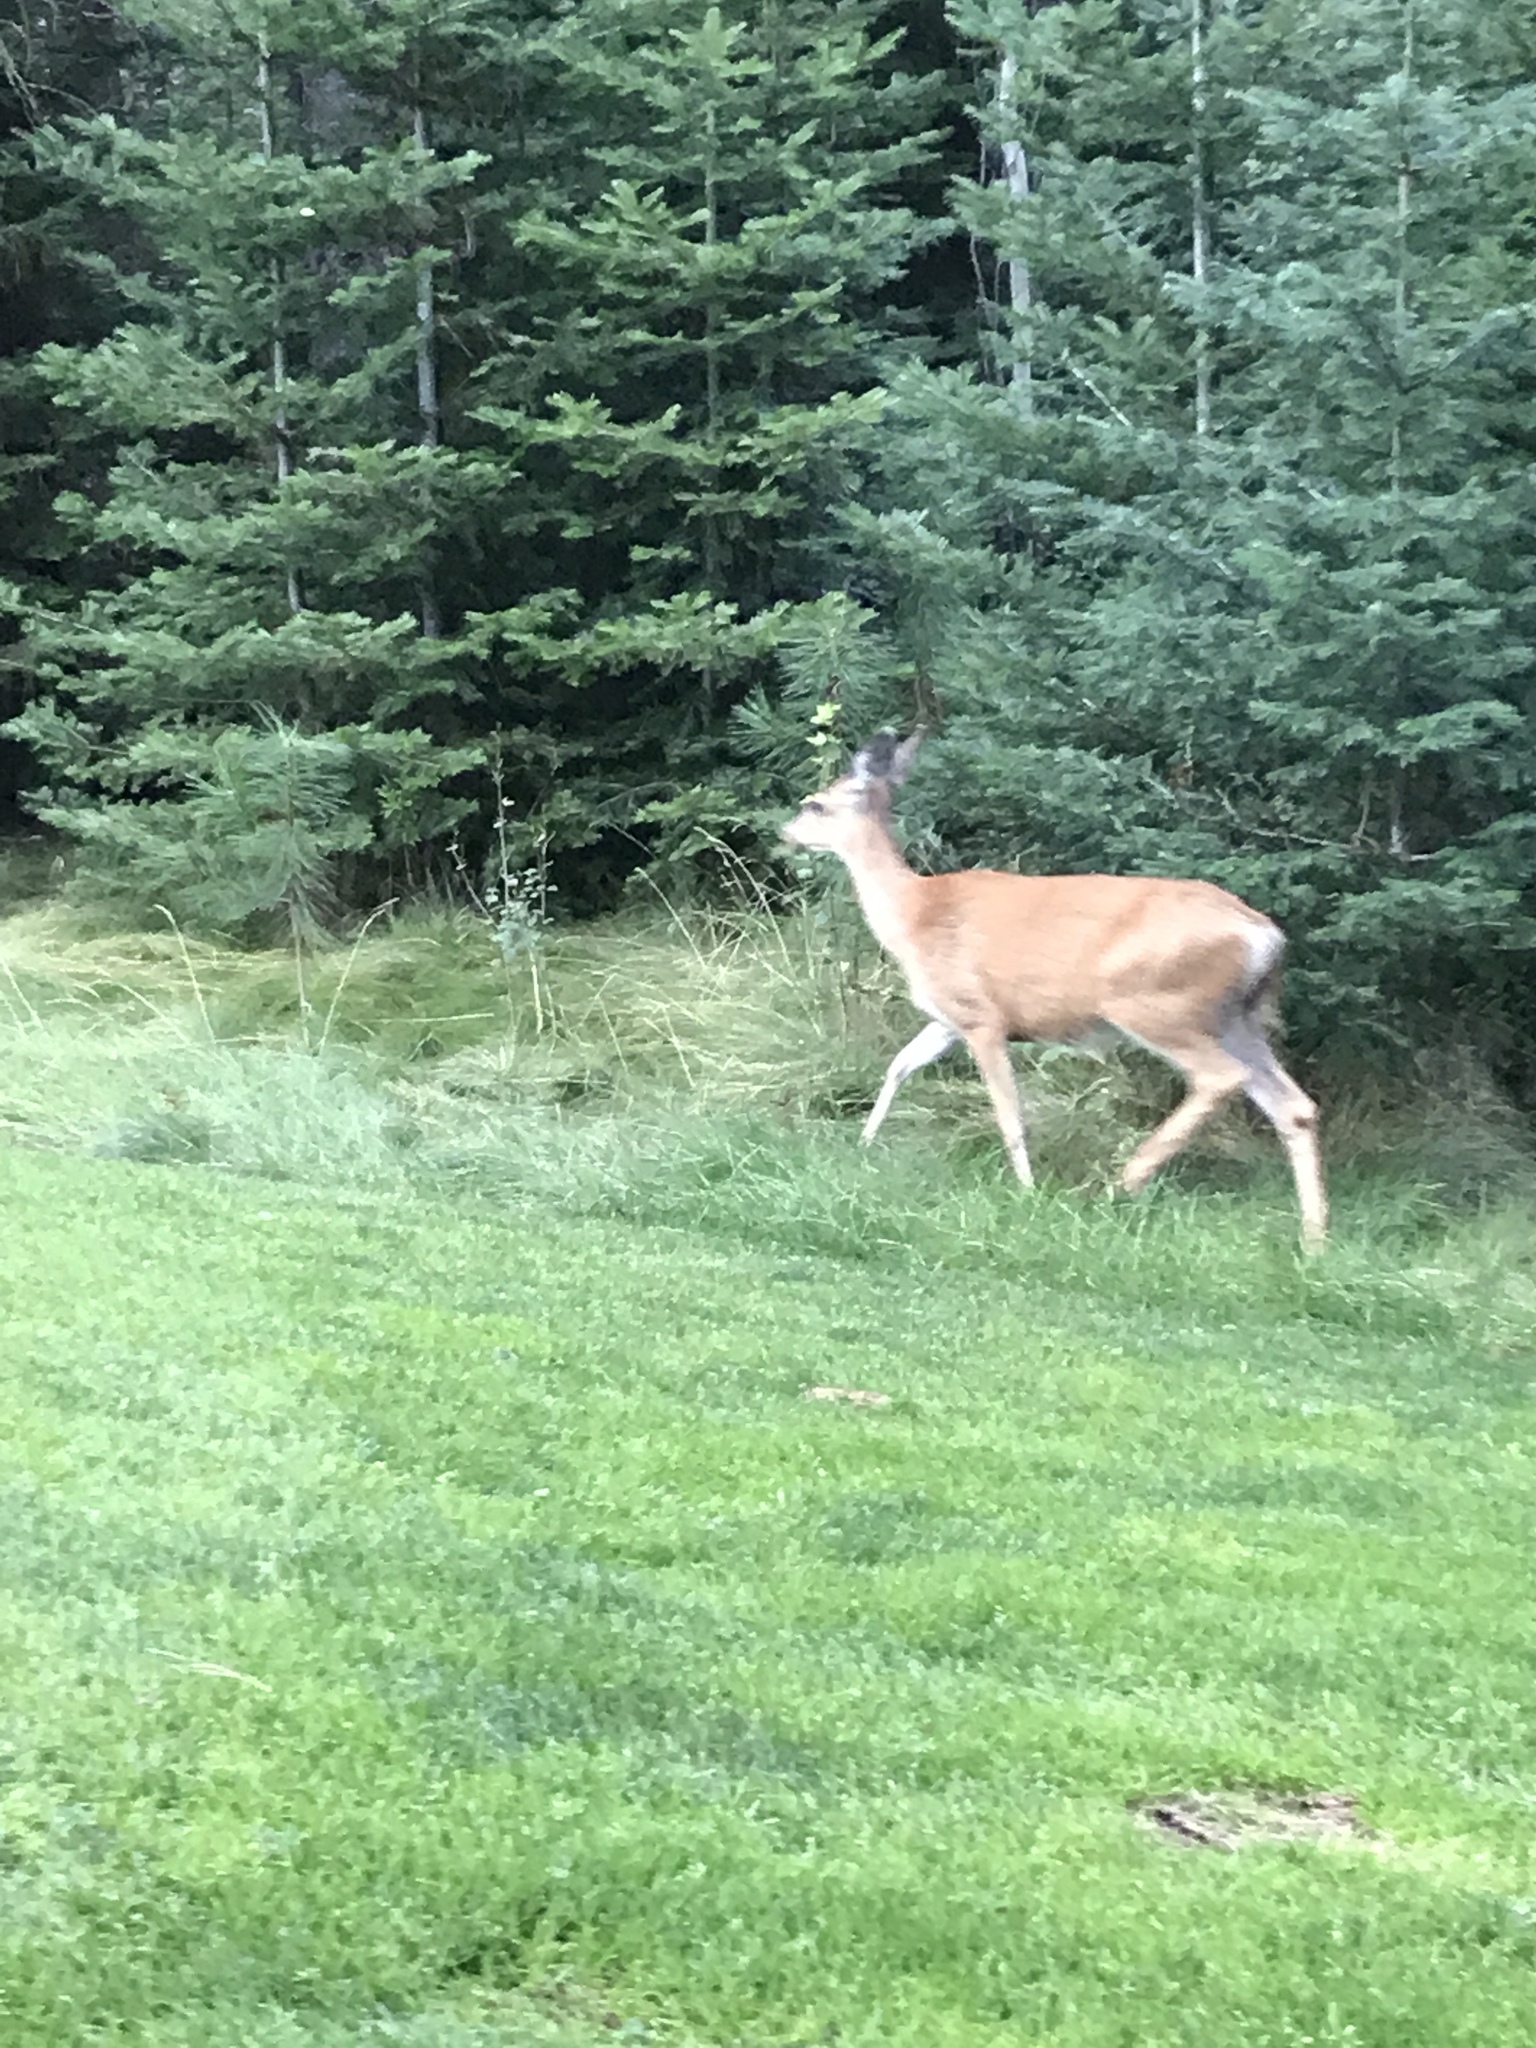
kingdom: Animalia
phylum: Chordata
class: Mammalia
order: Artiodactyla
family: Cervidae
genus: Odocoileus
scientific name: Odocoileus hemionus
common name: Mule deer
